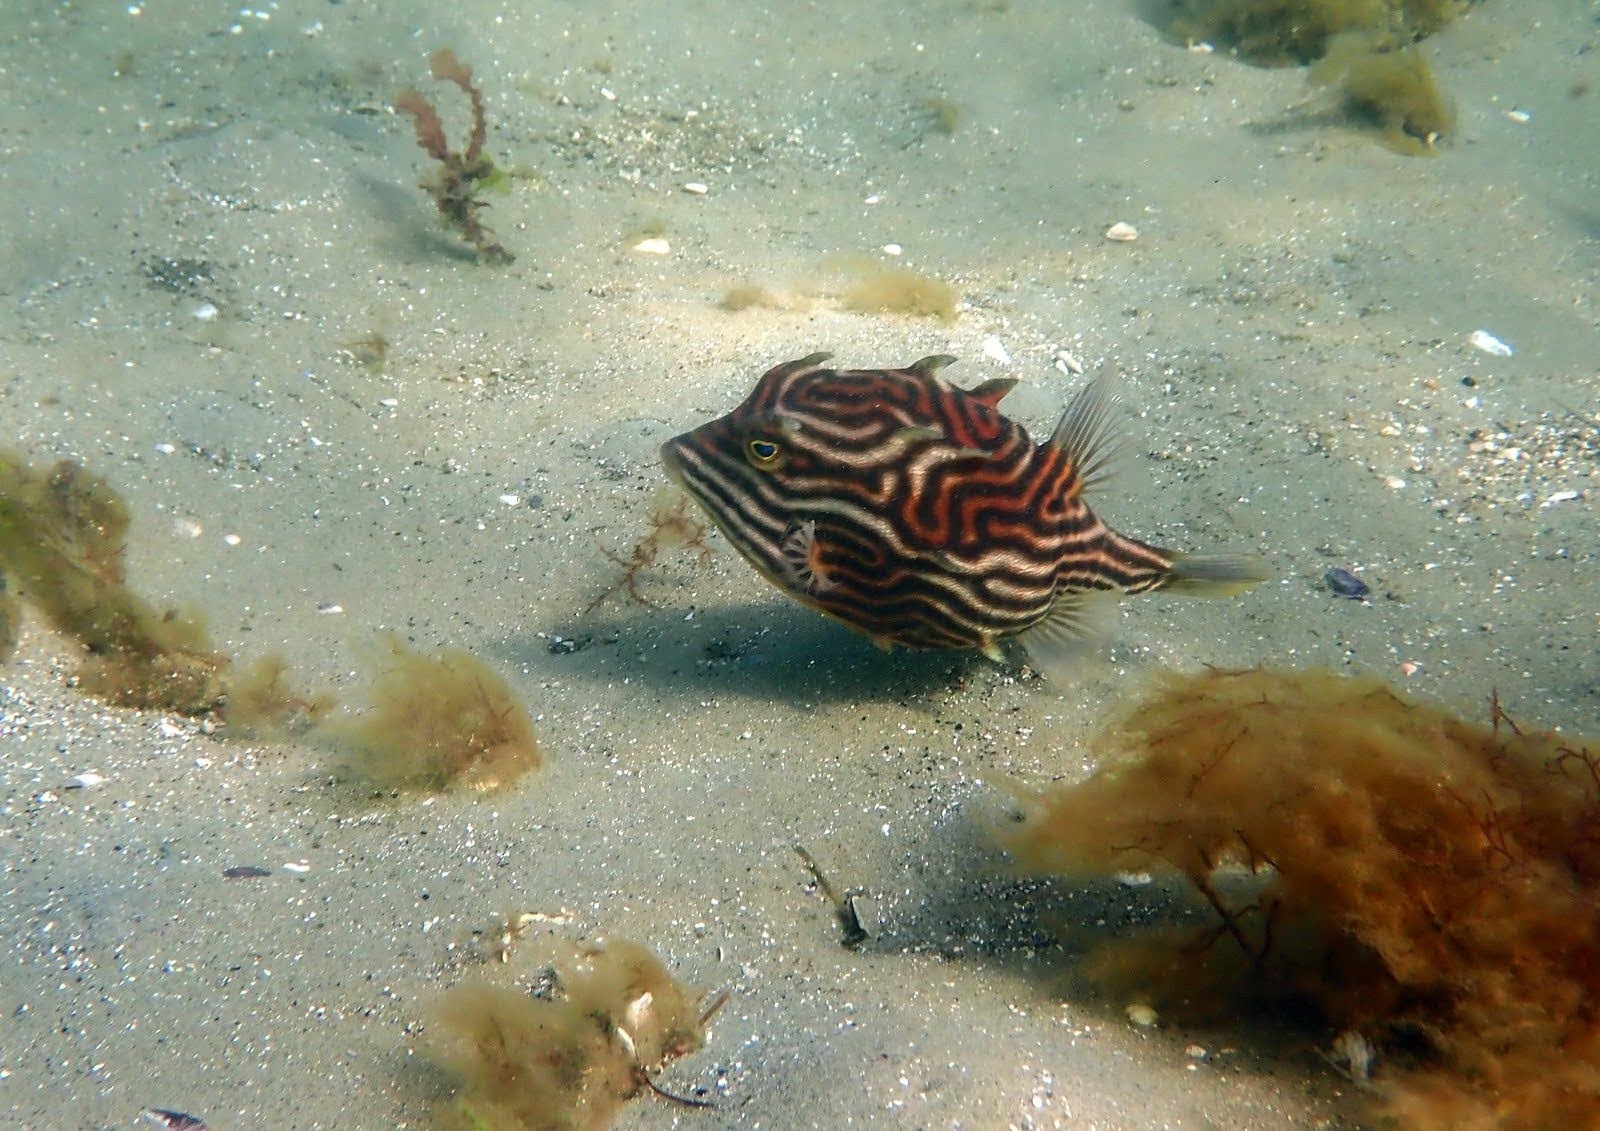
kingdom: Animalia
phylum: Chordata
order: Tetraodontiformes
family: Aracanidae
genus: Aracana
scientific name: Aracana aurita
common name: Shaw’s cowfish
